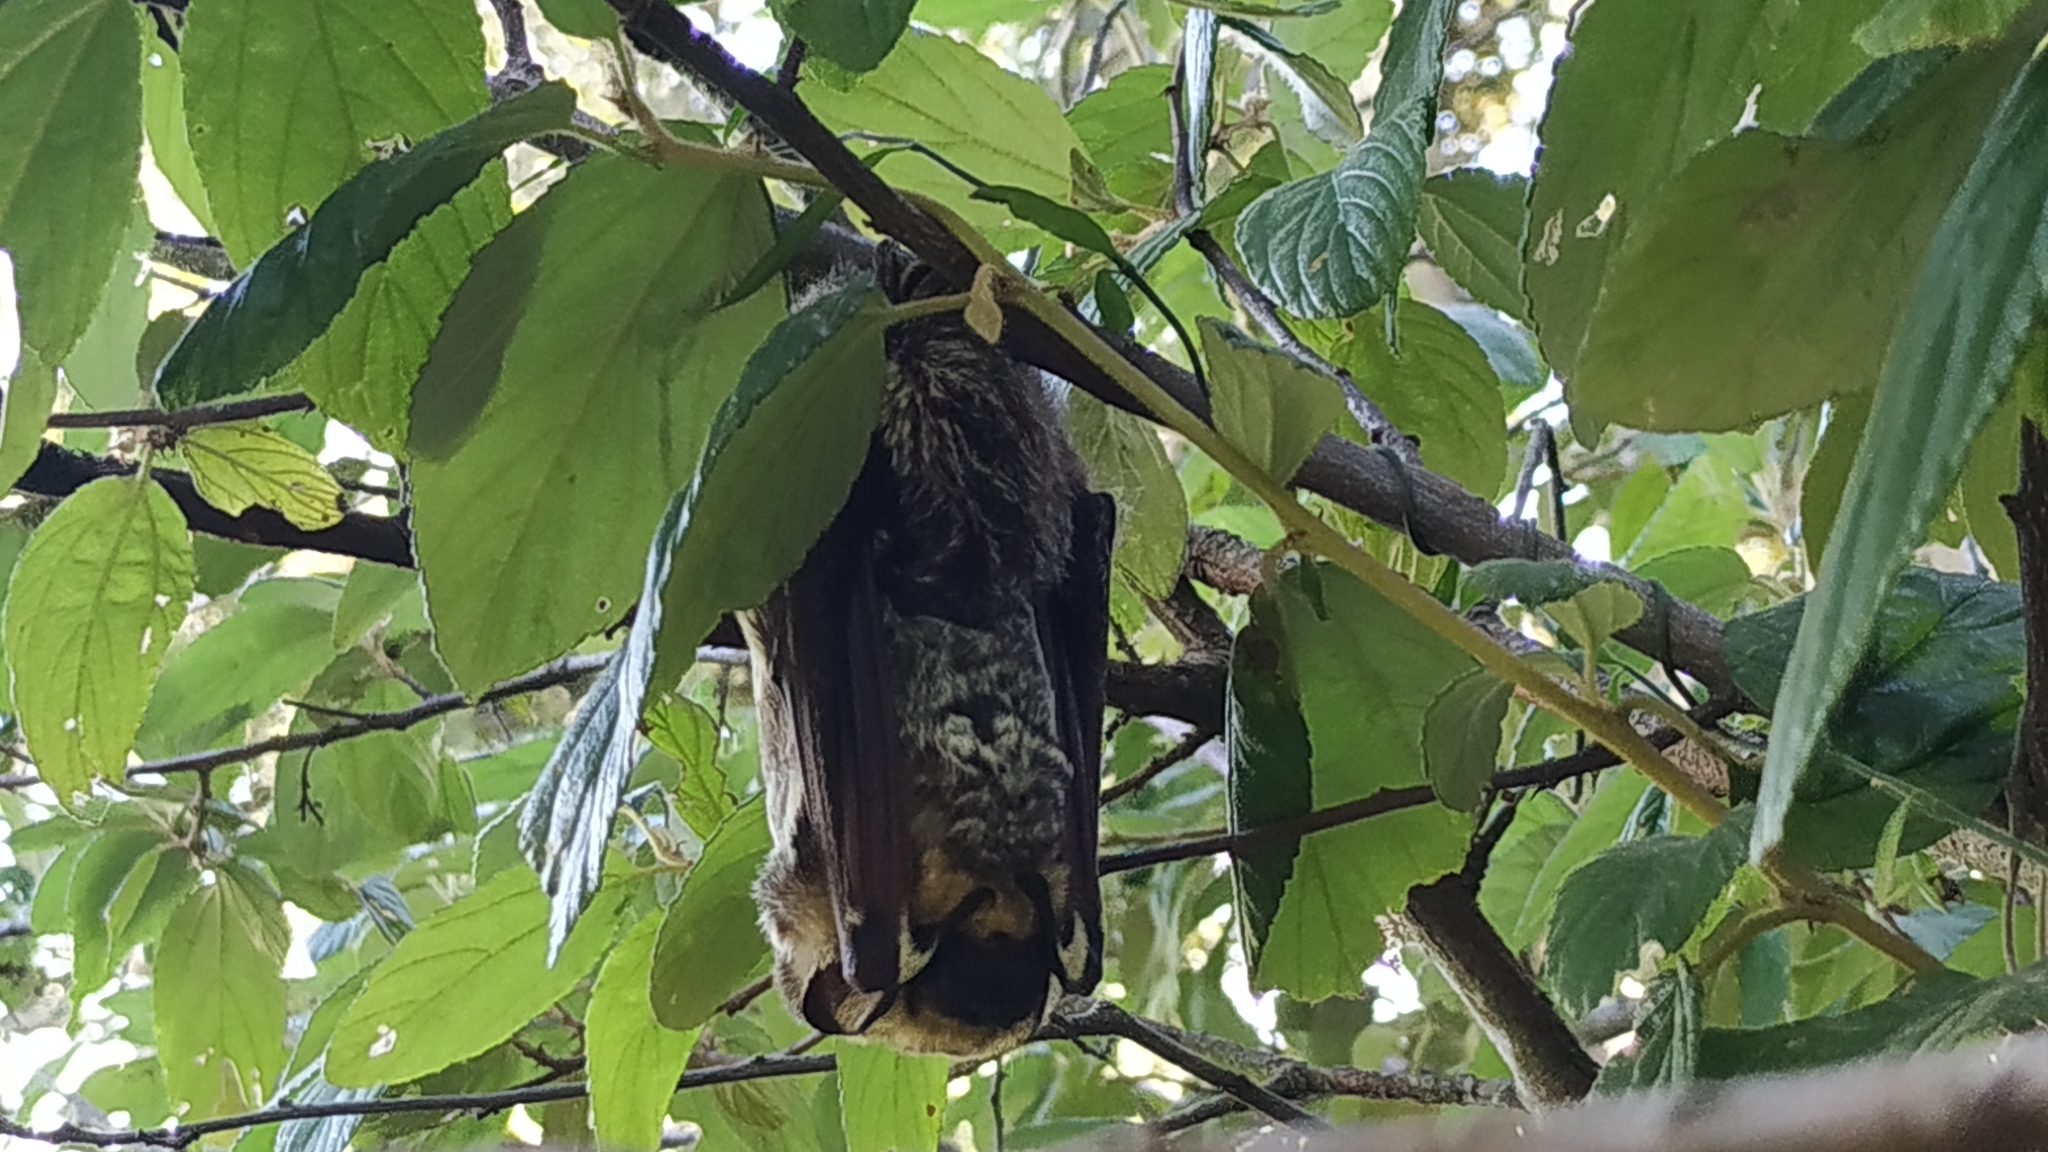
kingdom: Animalia
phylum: Chordata
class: Mammalia
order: Chiroptera
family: Vespertilionidae
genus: Aeorestes
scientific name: Aeorestes cinereus
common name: North american hoary bat
